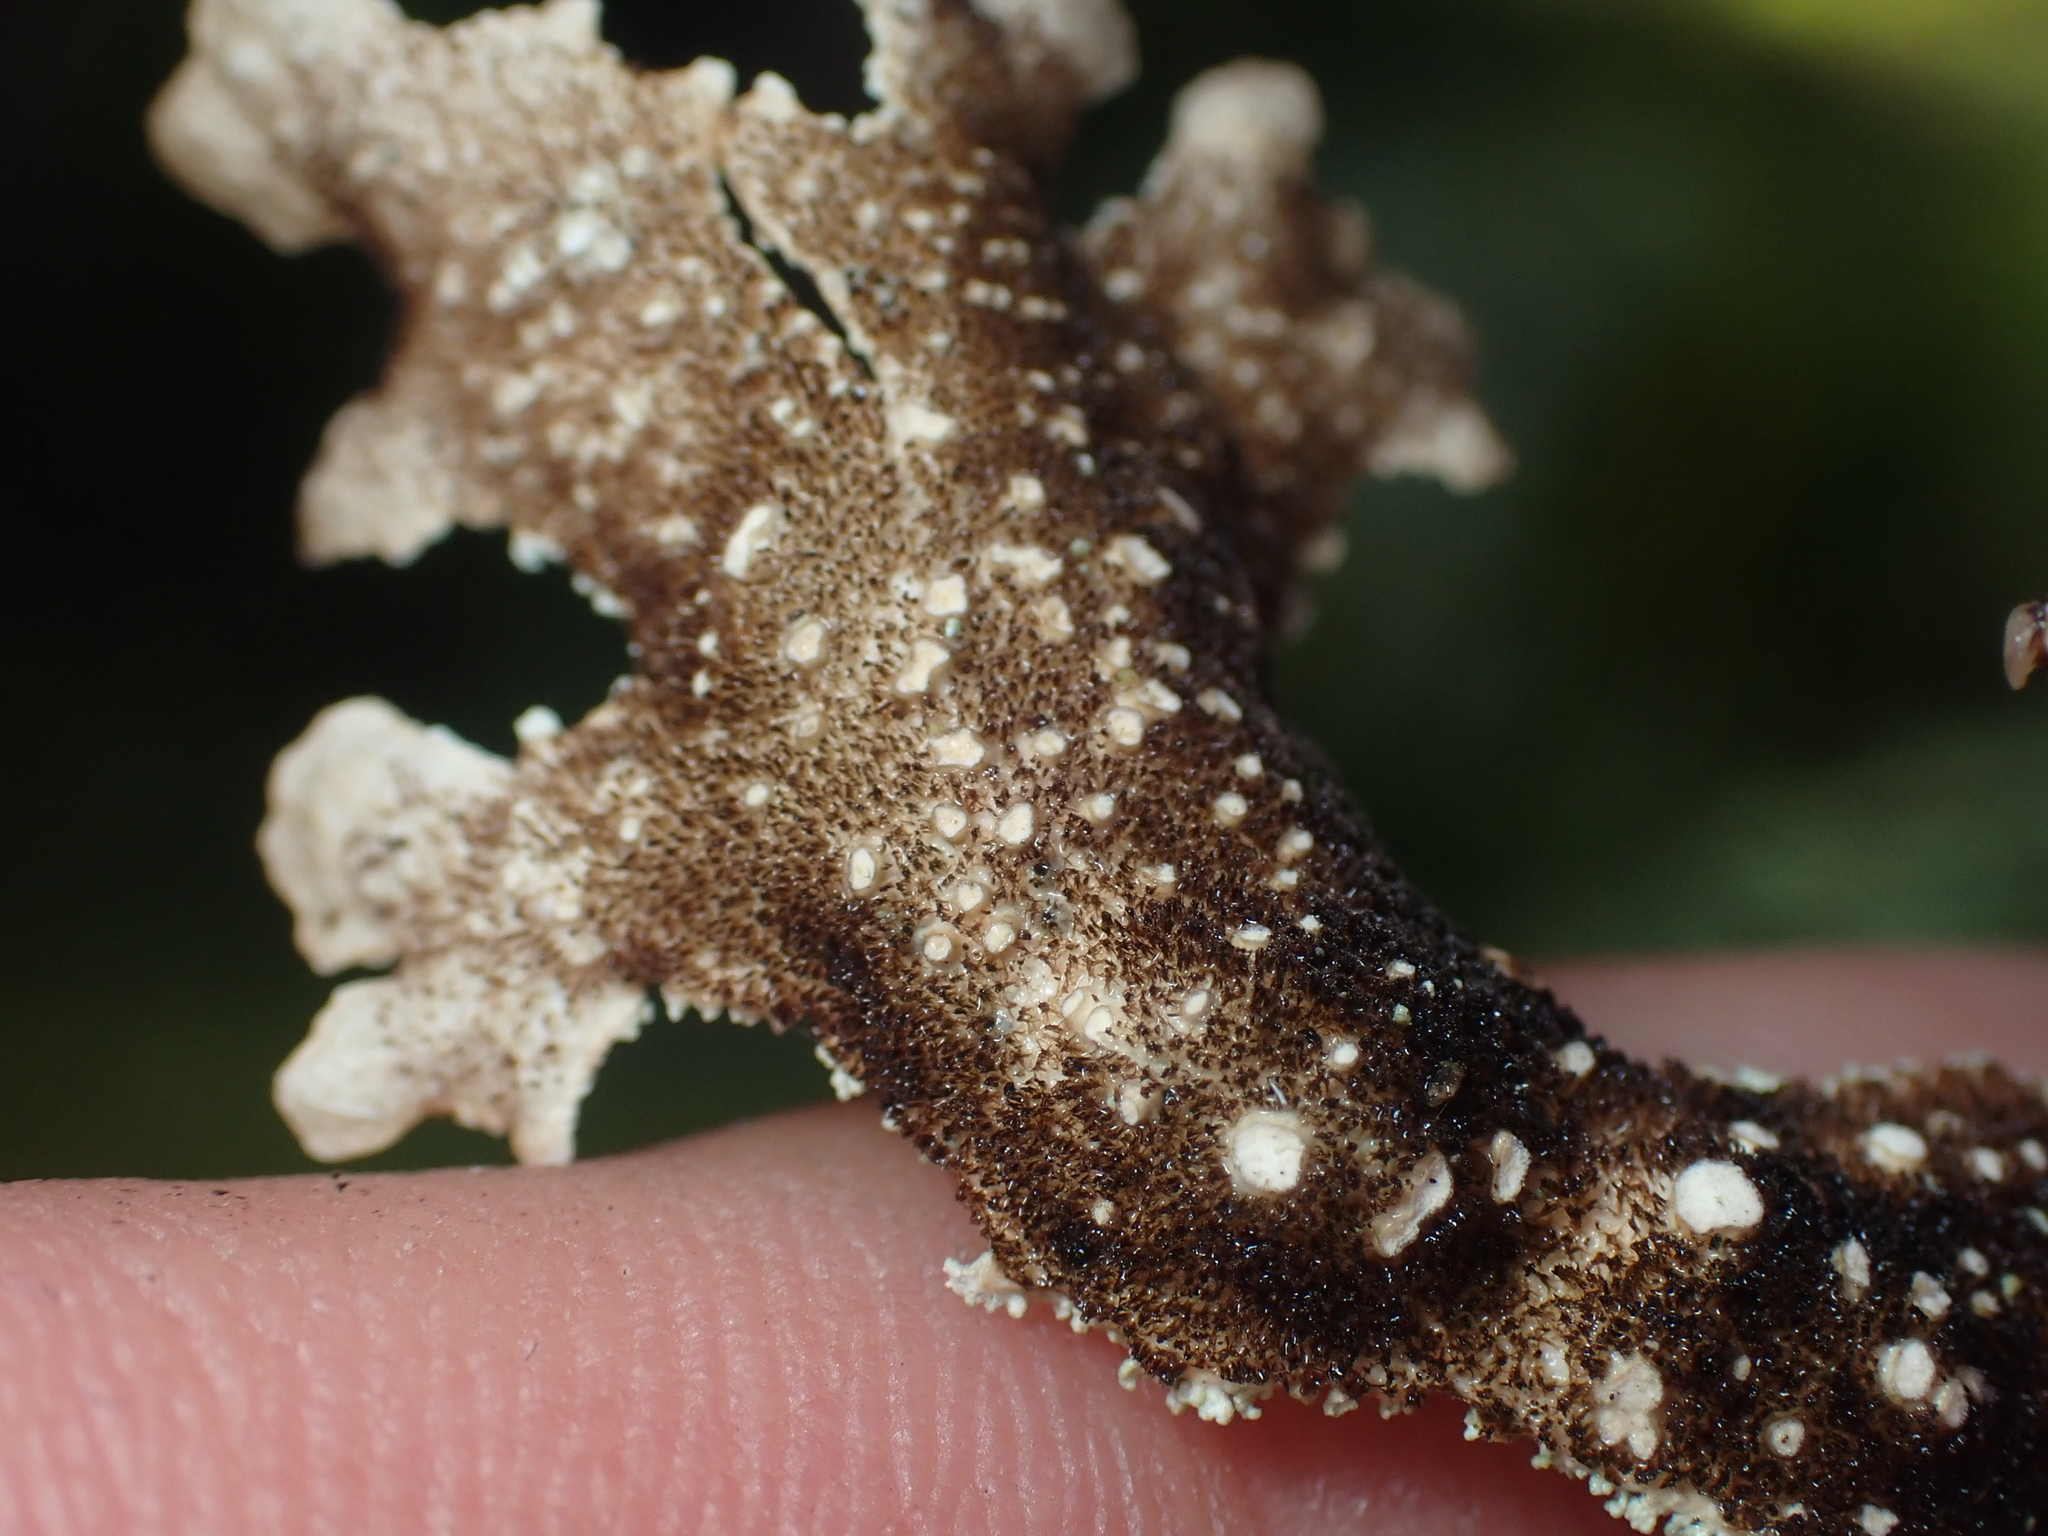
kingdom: Fungi
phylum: Ascomycota
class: Lecanoromycetes
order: Peltigerales
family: Lobariaceae
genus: Pseudocyphellaria
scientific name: Pseudocyphellaria granulata
